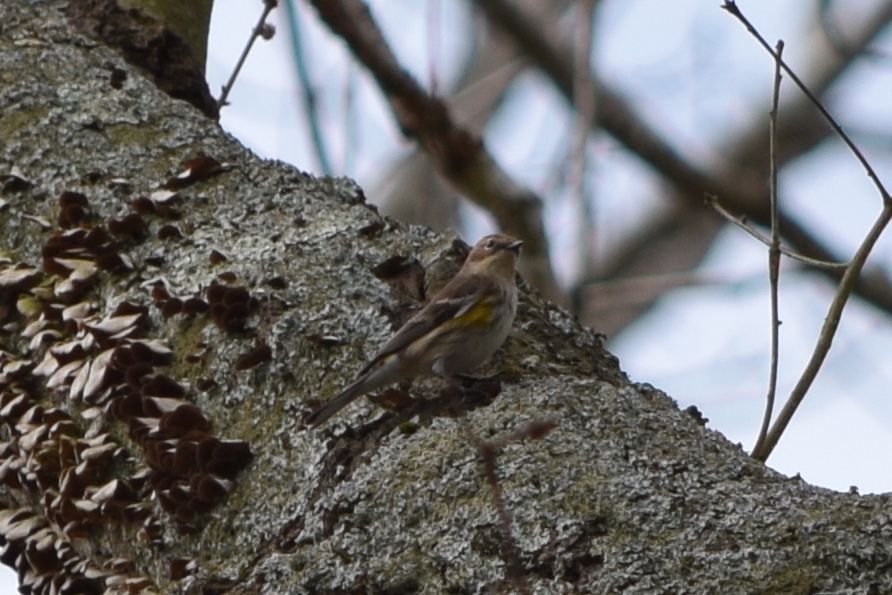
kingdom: Animalia
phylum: Chordata
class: Aves
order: Passeriformes
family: Parulidae
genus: Setophaga
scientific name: Setophaga coronata
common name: Myrtle warbler
